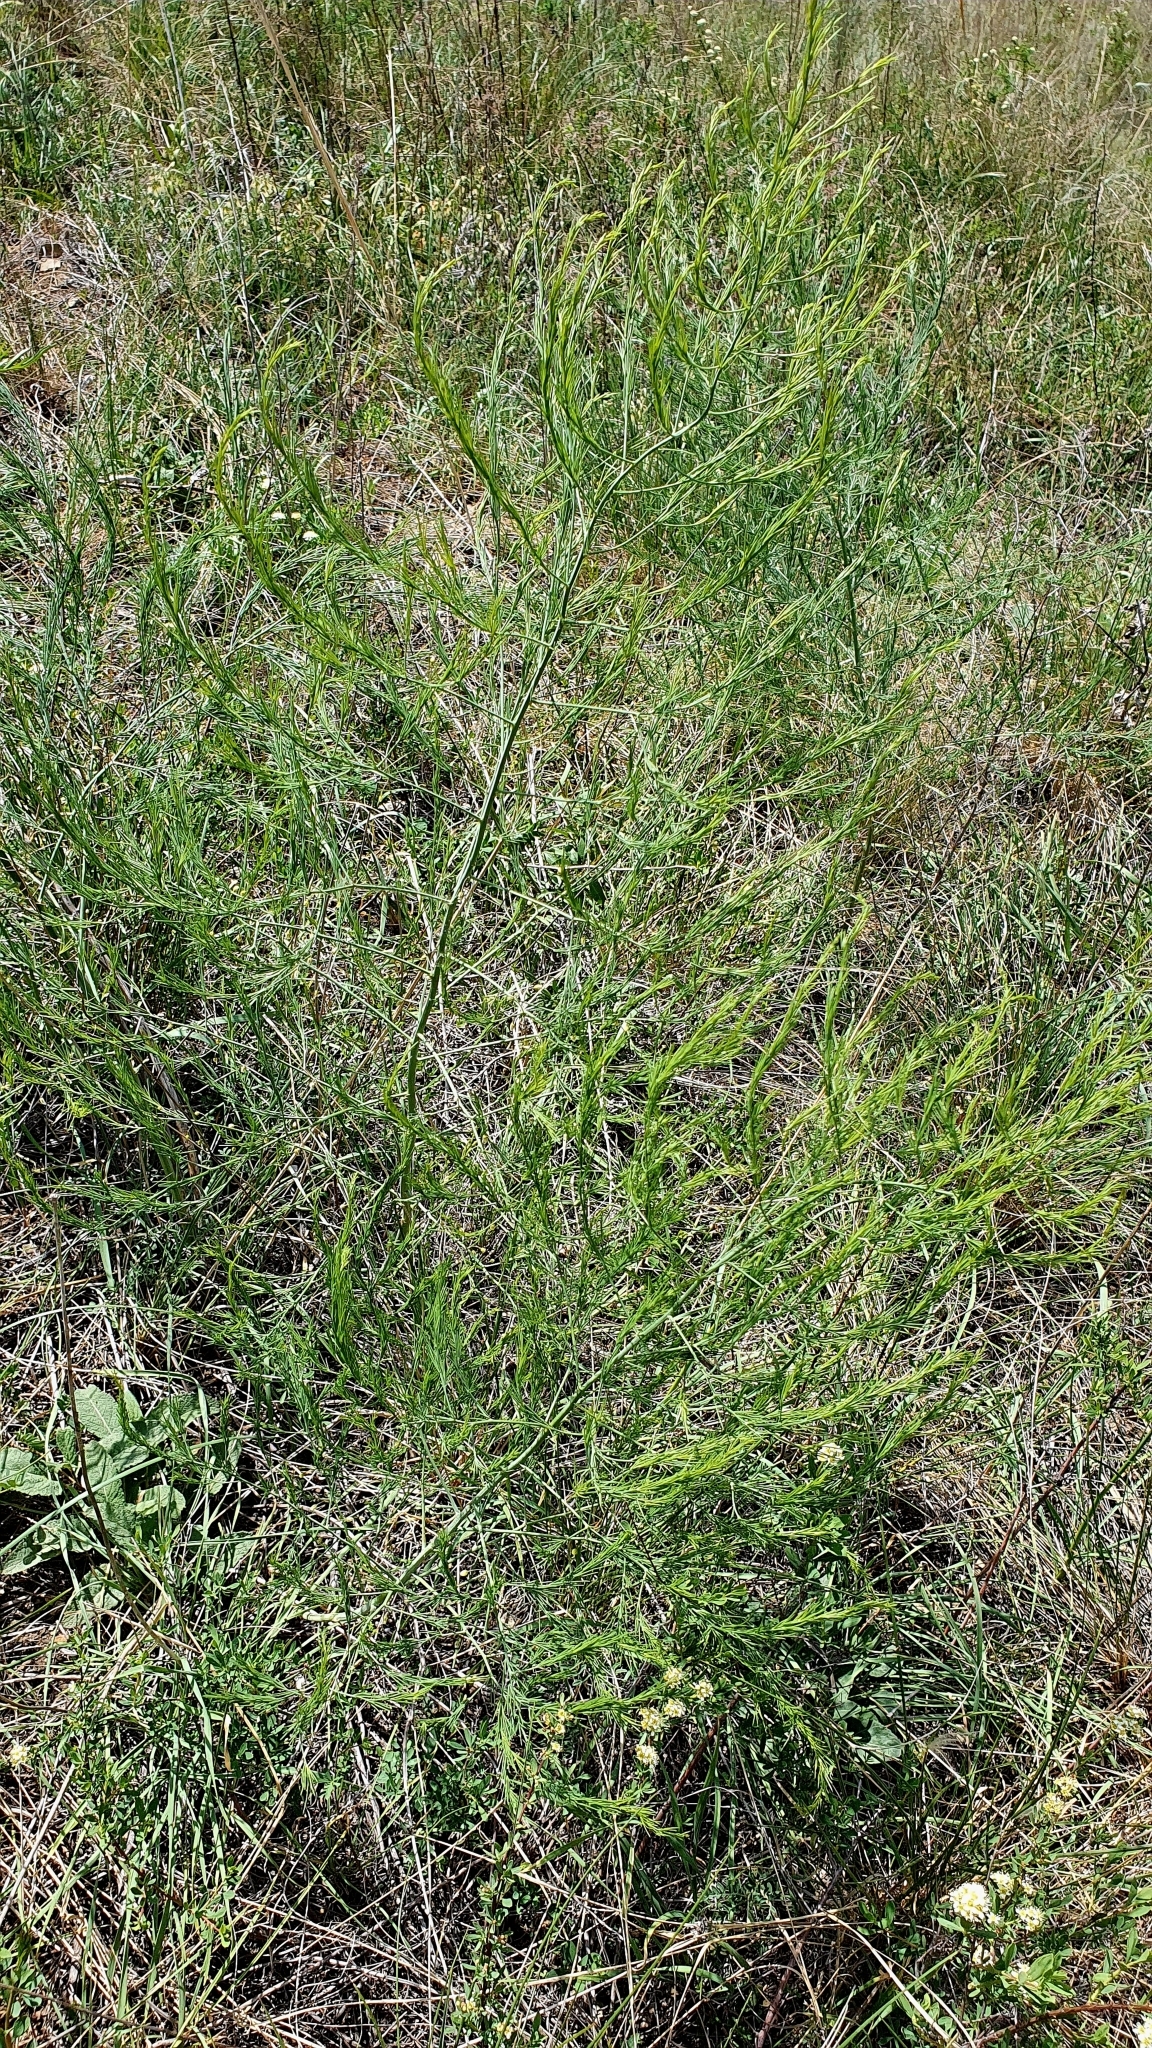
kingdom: Plantae
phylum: Tracheophyta
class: Liliopsida
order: Asparagales
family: Asparagaceae
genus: Asparagus
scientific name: Asparagus officinalis
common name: Garden asparagus
